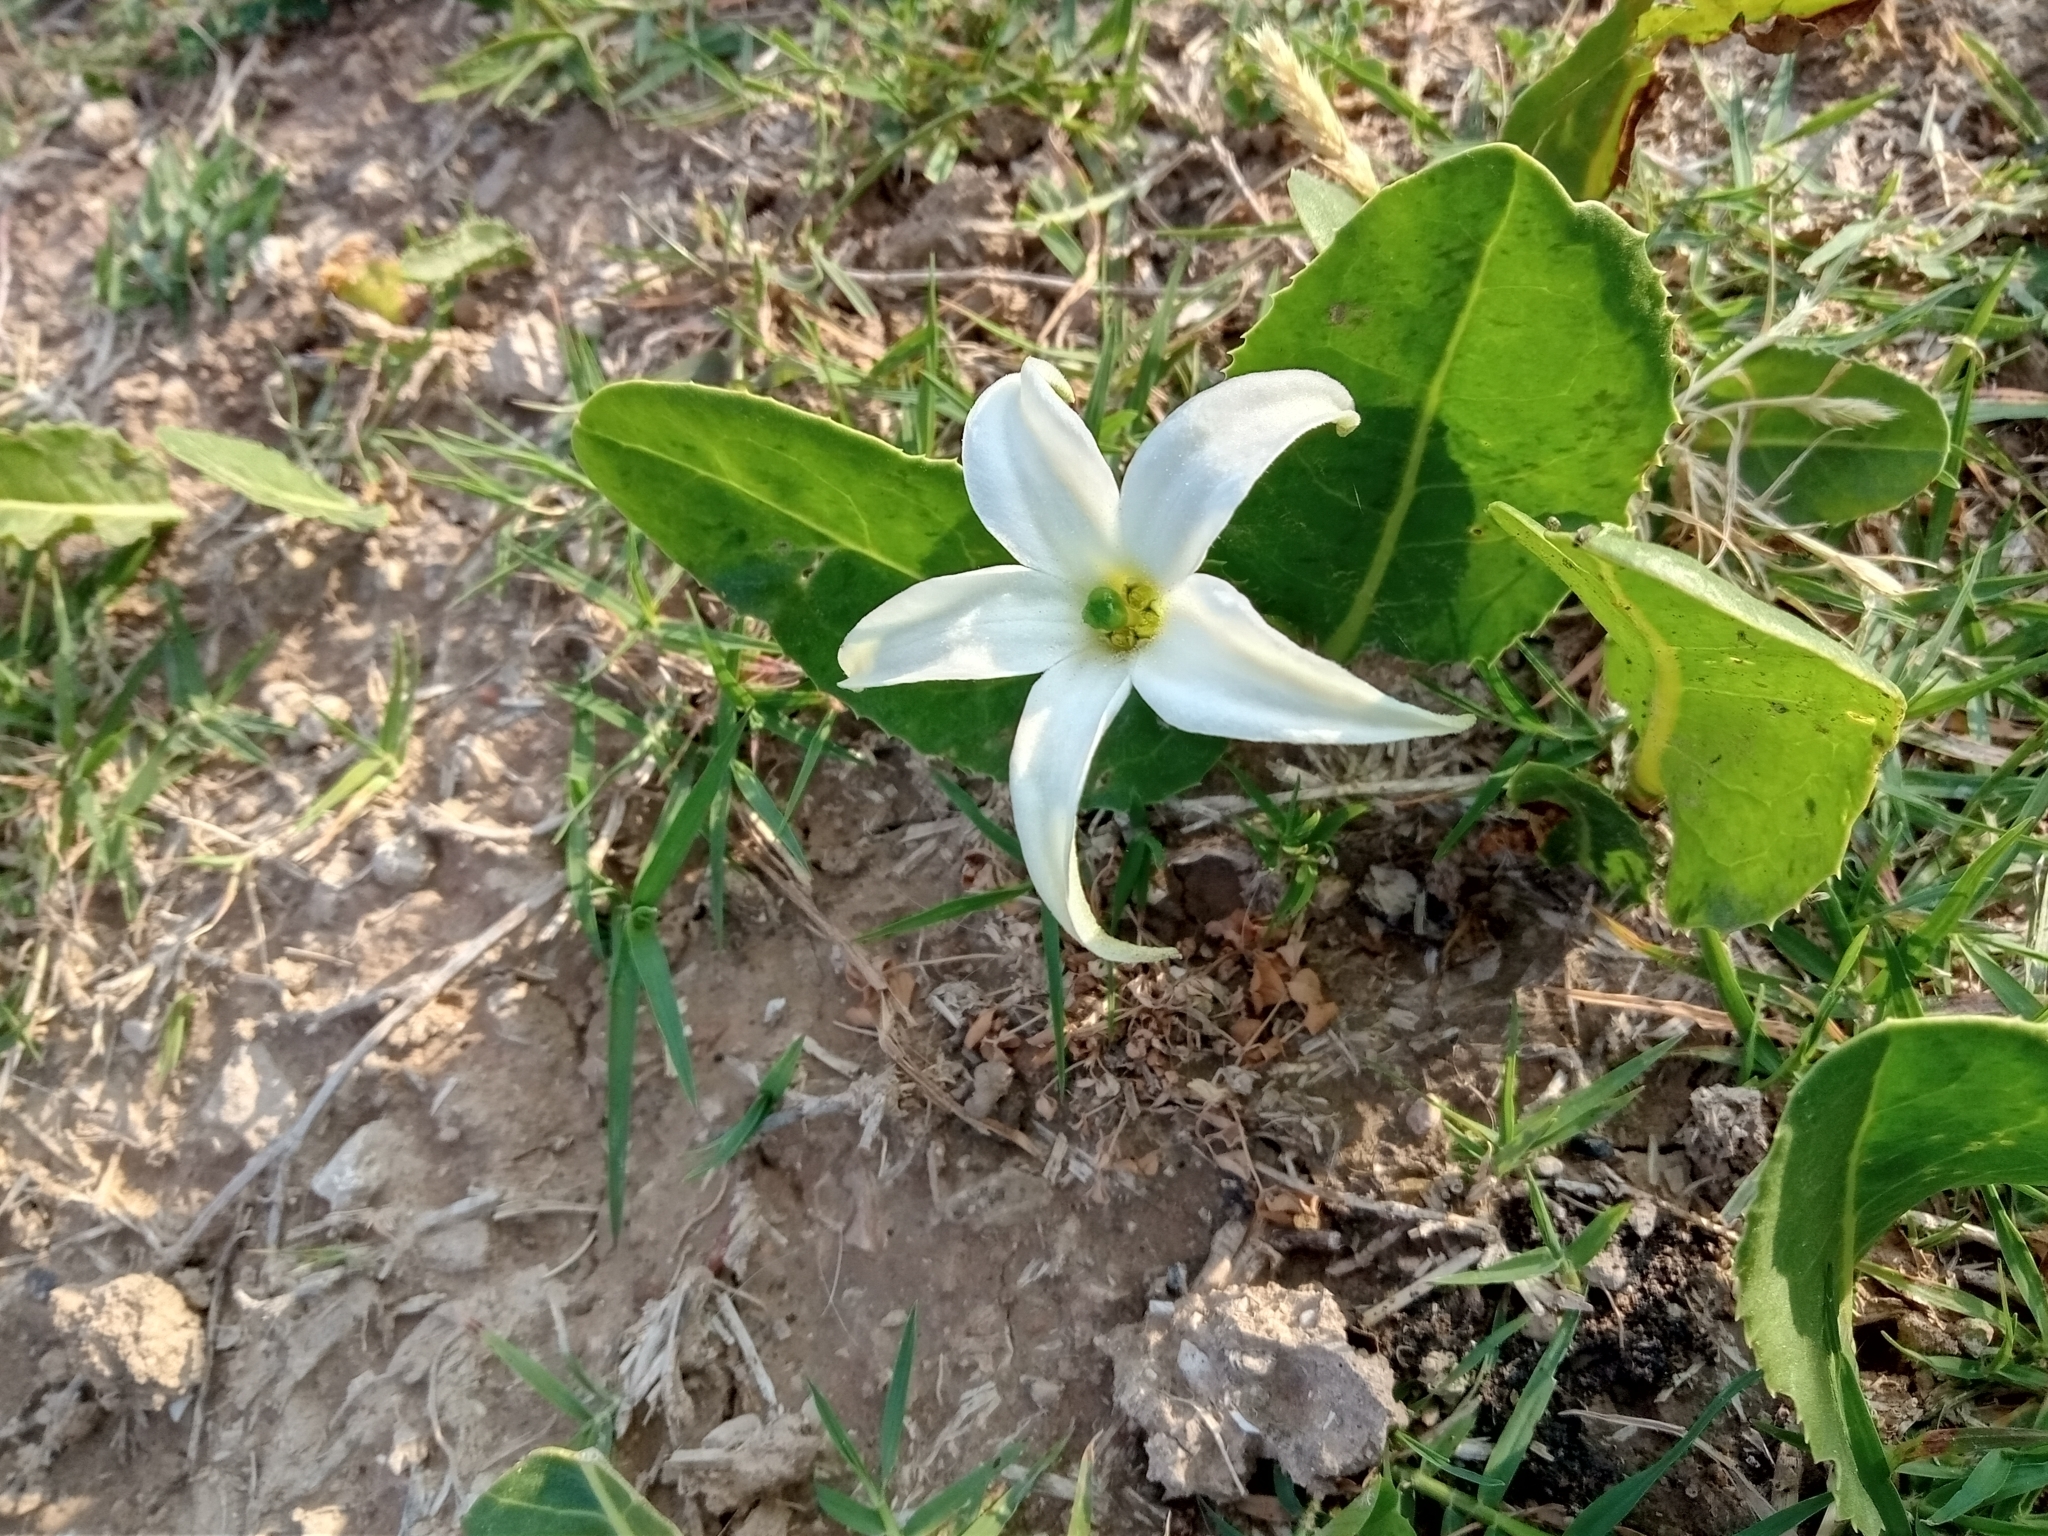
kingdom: Plantae
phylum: Tracheophyta
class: Magnoliopsida
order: Solanales
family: Solanaceae
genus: Jaborosa
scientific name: Jaborosa integrifolia
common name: Springblossom
